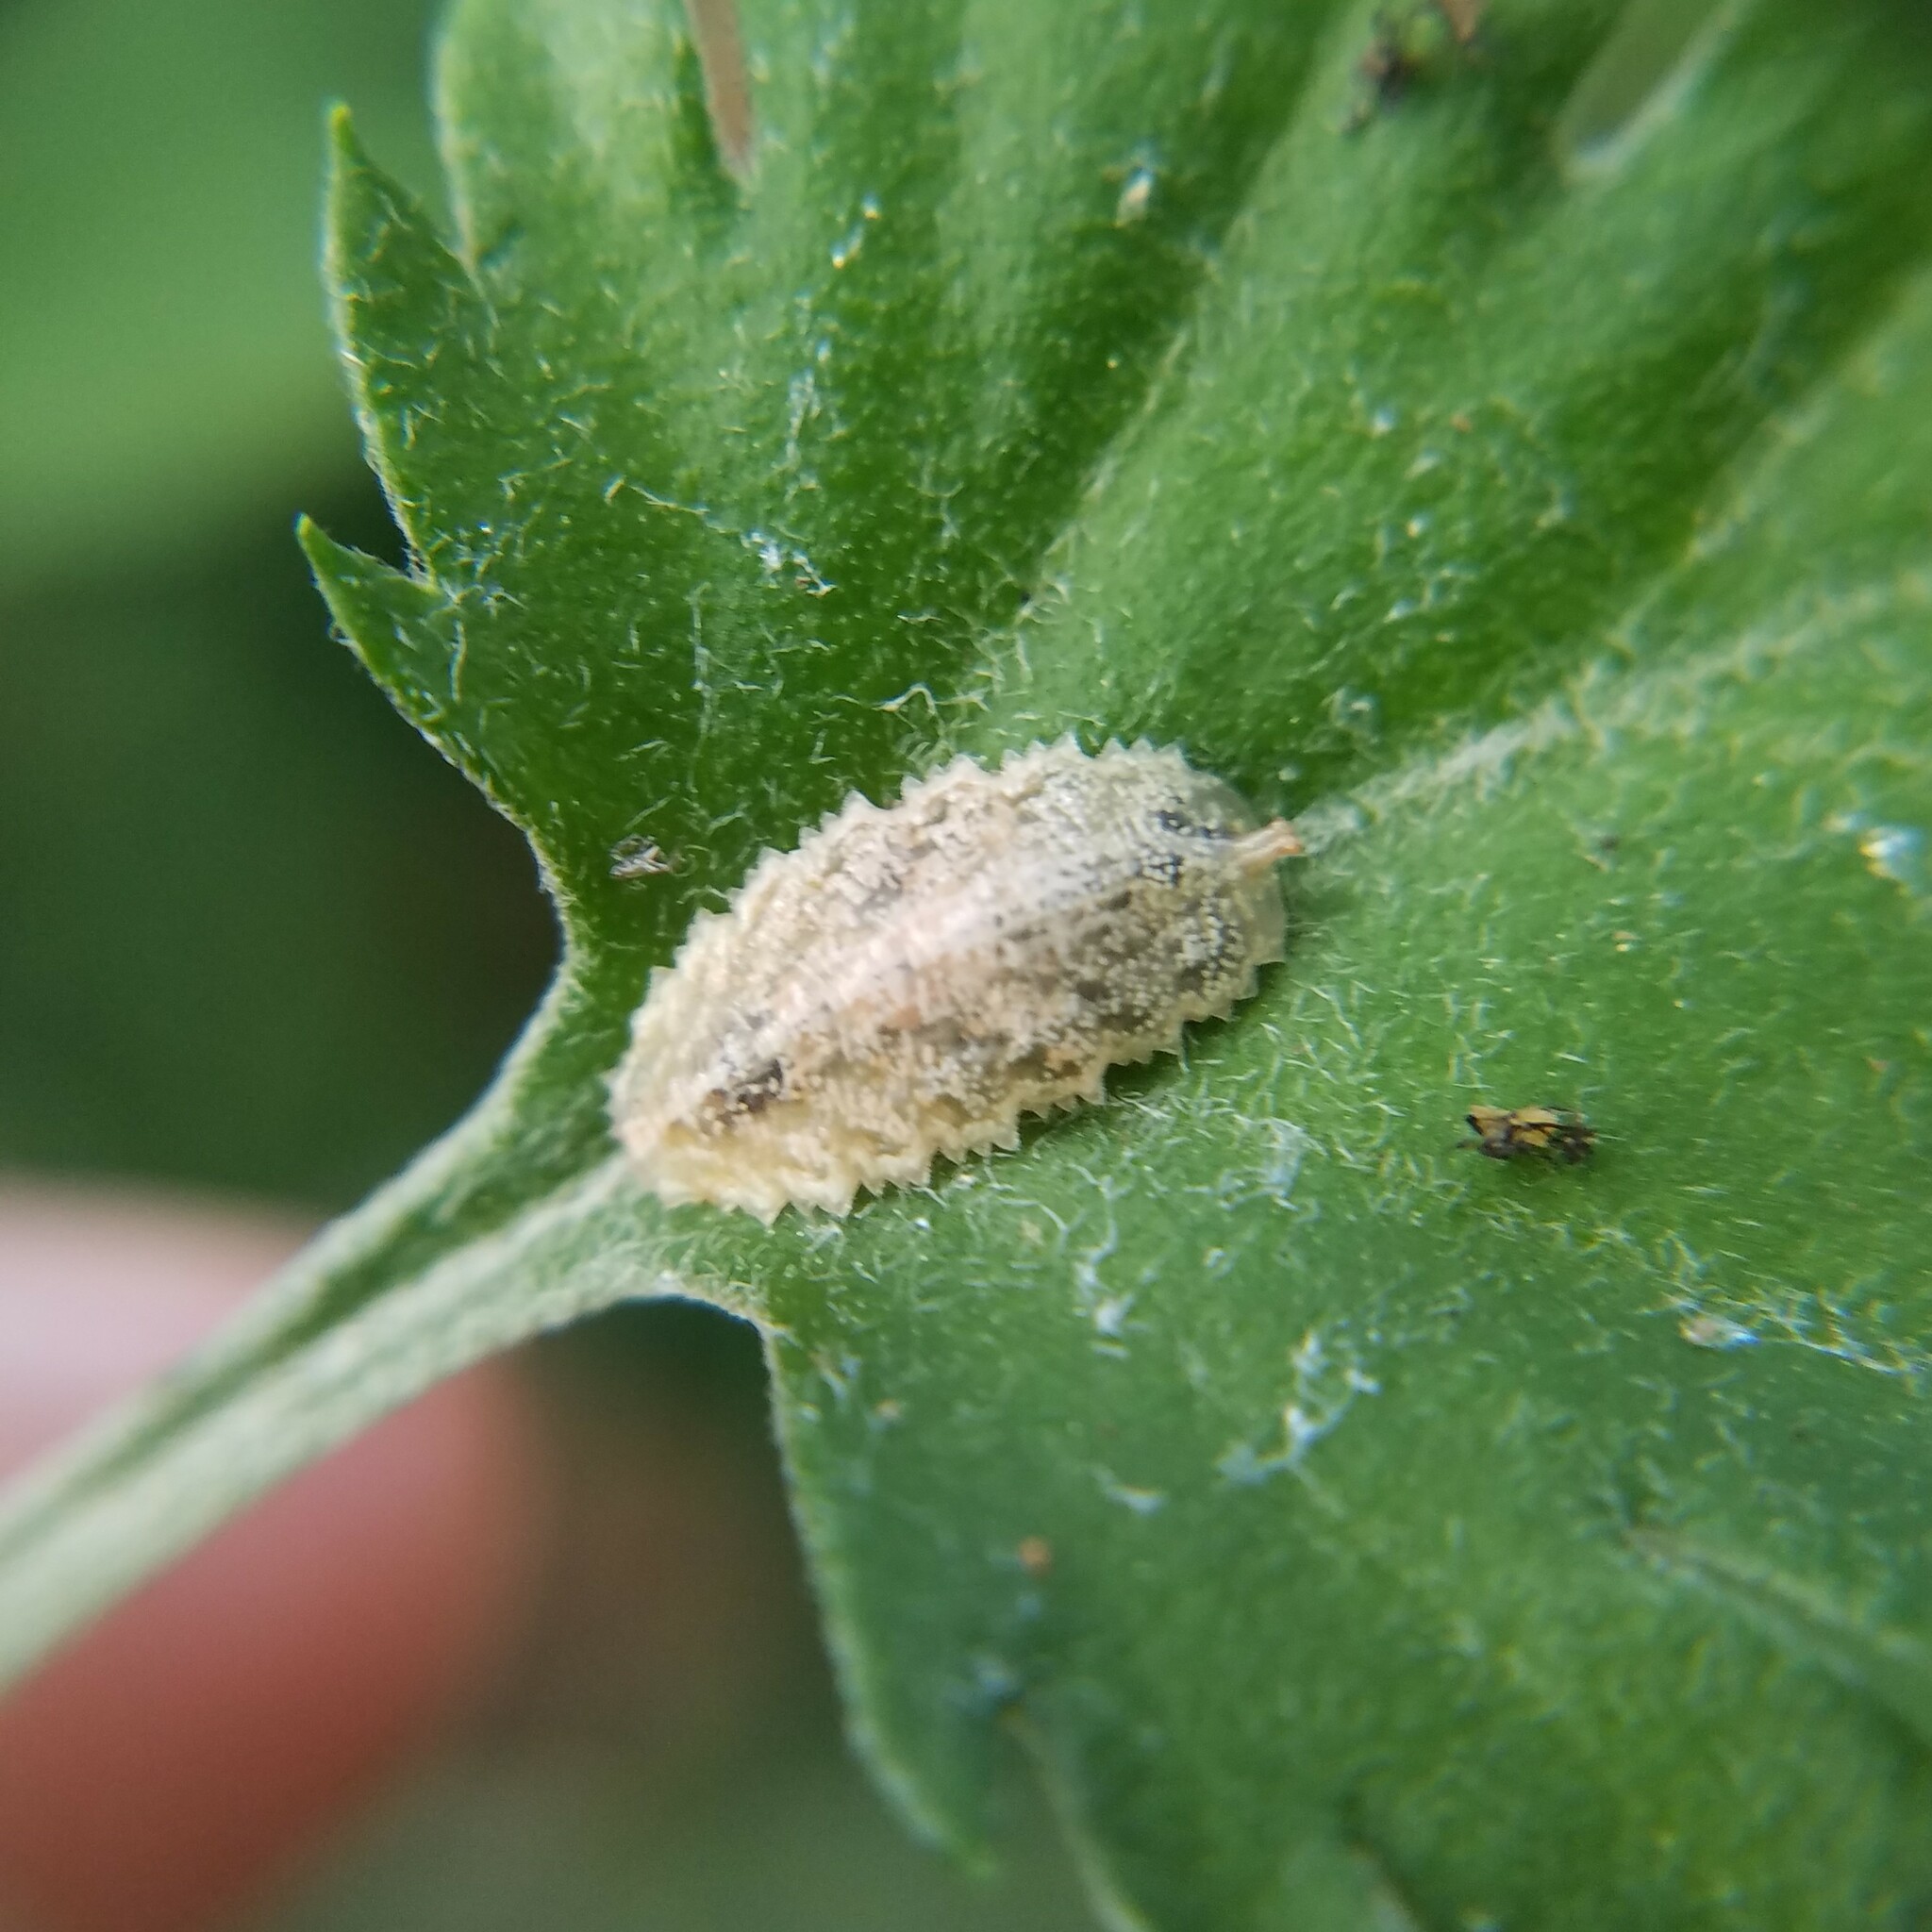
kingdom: Animalia
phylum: Arthropoda
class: Insecta
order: Diptera
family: Syrphidae
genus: Epistrophella
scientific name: Epistrophella emarginata
